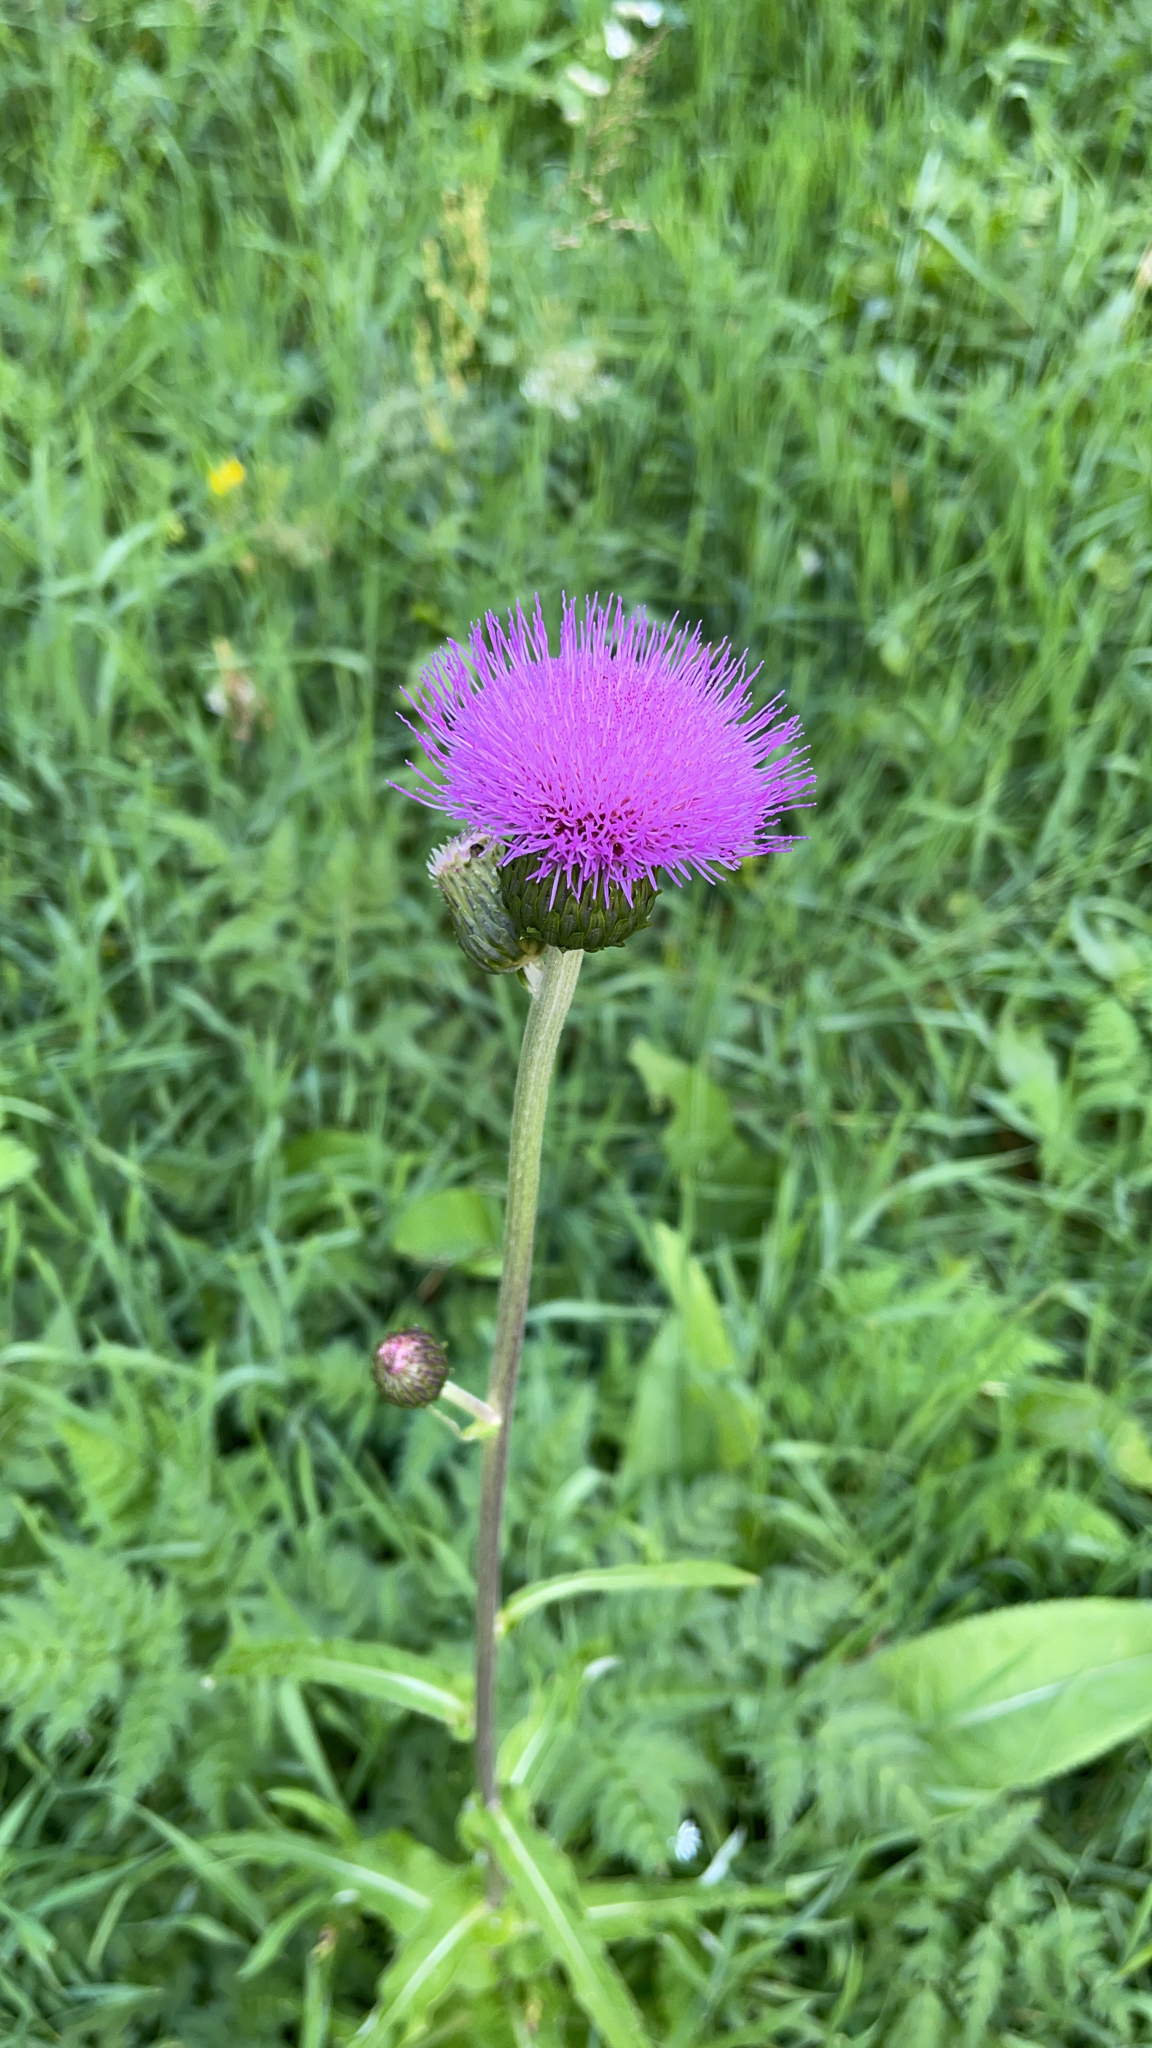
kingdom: Plantae
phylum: Tracheophyta
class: Magnoliopsida
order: Asterales
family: Asteraceae
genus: Cirsium
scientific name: Cirsium heterophyllum
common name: Melancholy thistle
